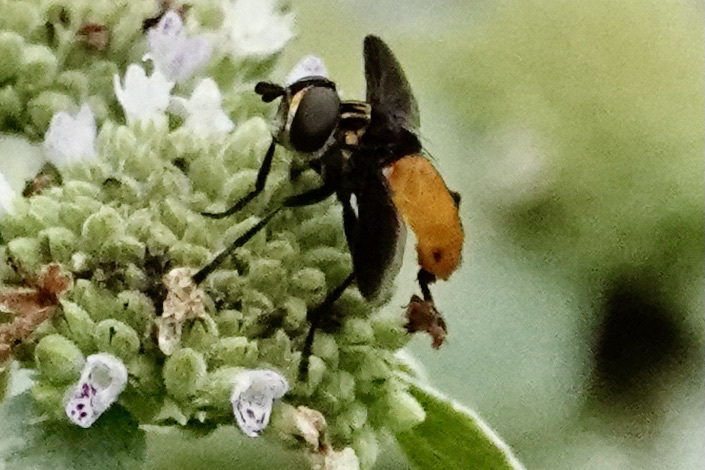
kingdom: Animalia
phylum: Arthropoda
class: Insecta
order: Diptera
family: Tachinidae
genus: Trichopoda
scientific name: Trichopoda pennipes
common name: Tachinid fly
